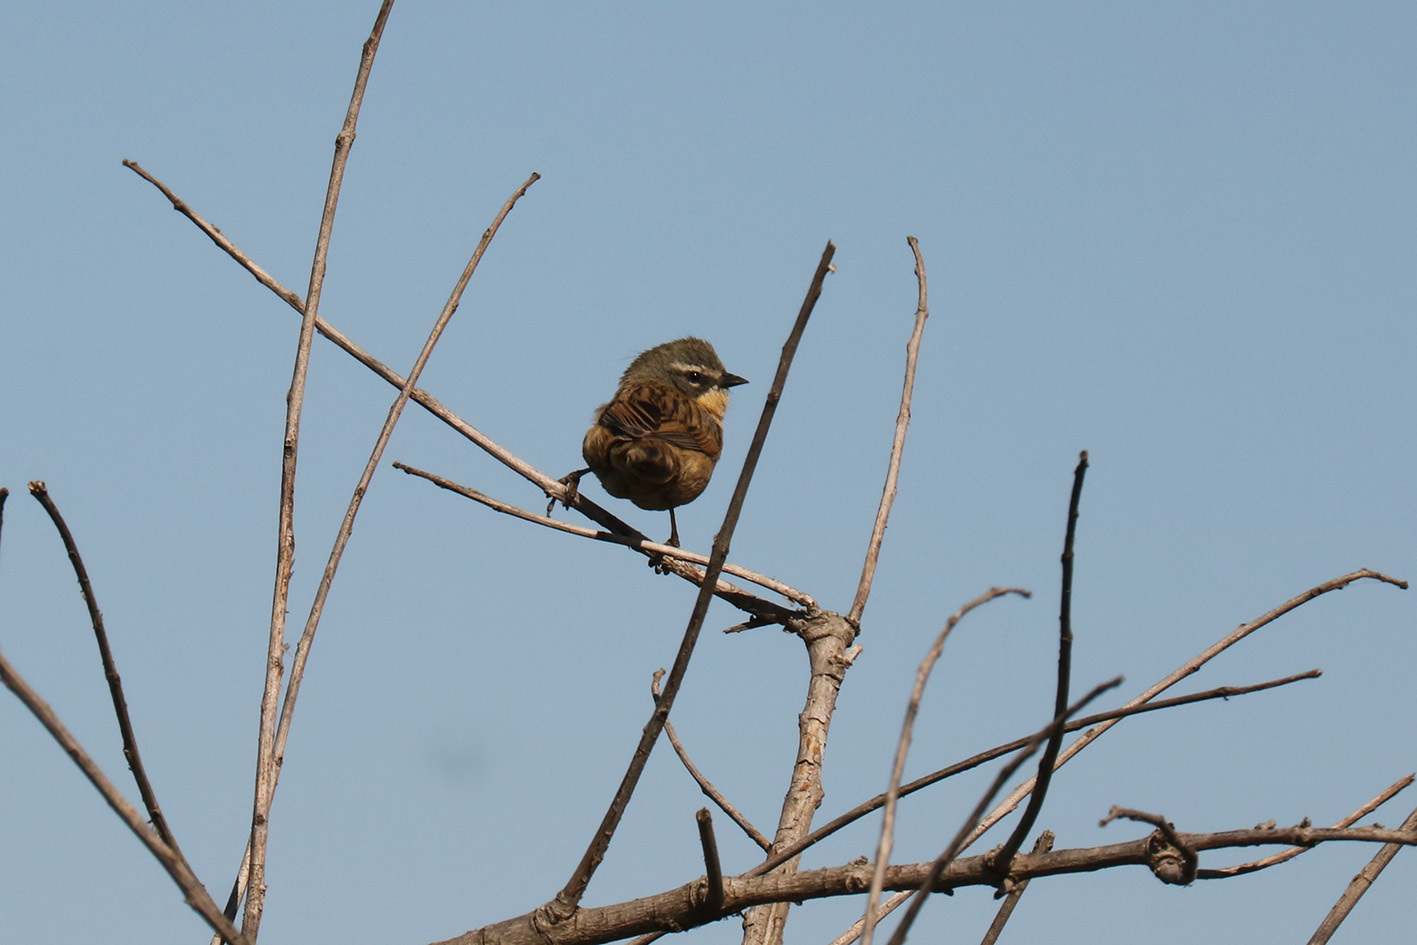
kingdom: Animalia
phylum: Chordata
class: Aves
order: Passeriformes
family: Thraupidae
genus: Donacospiza
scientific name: Donacospiza albifrons
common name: Long-tailed reed finch
